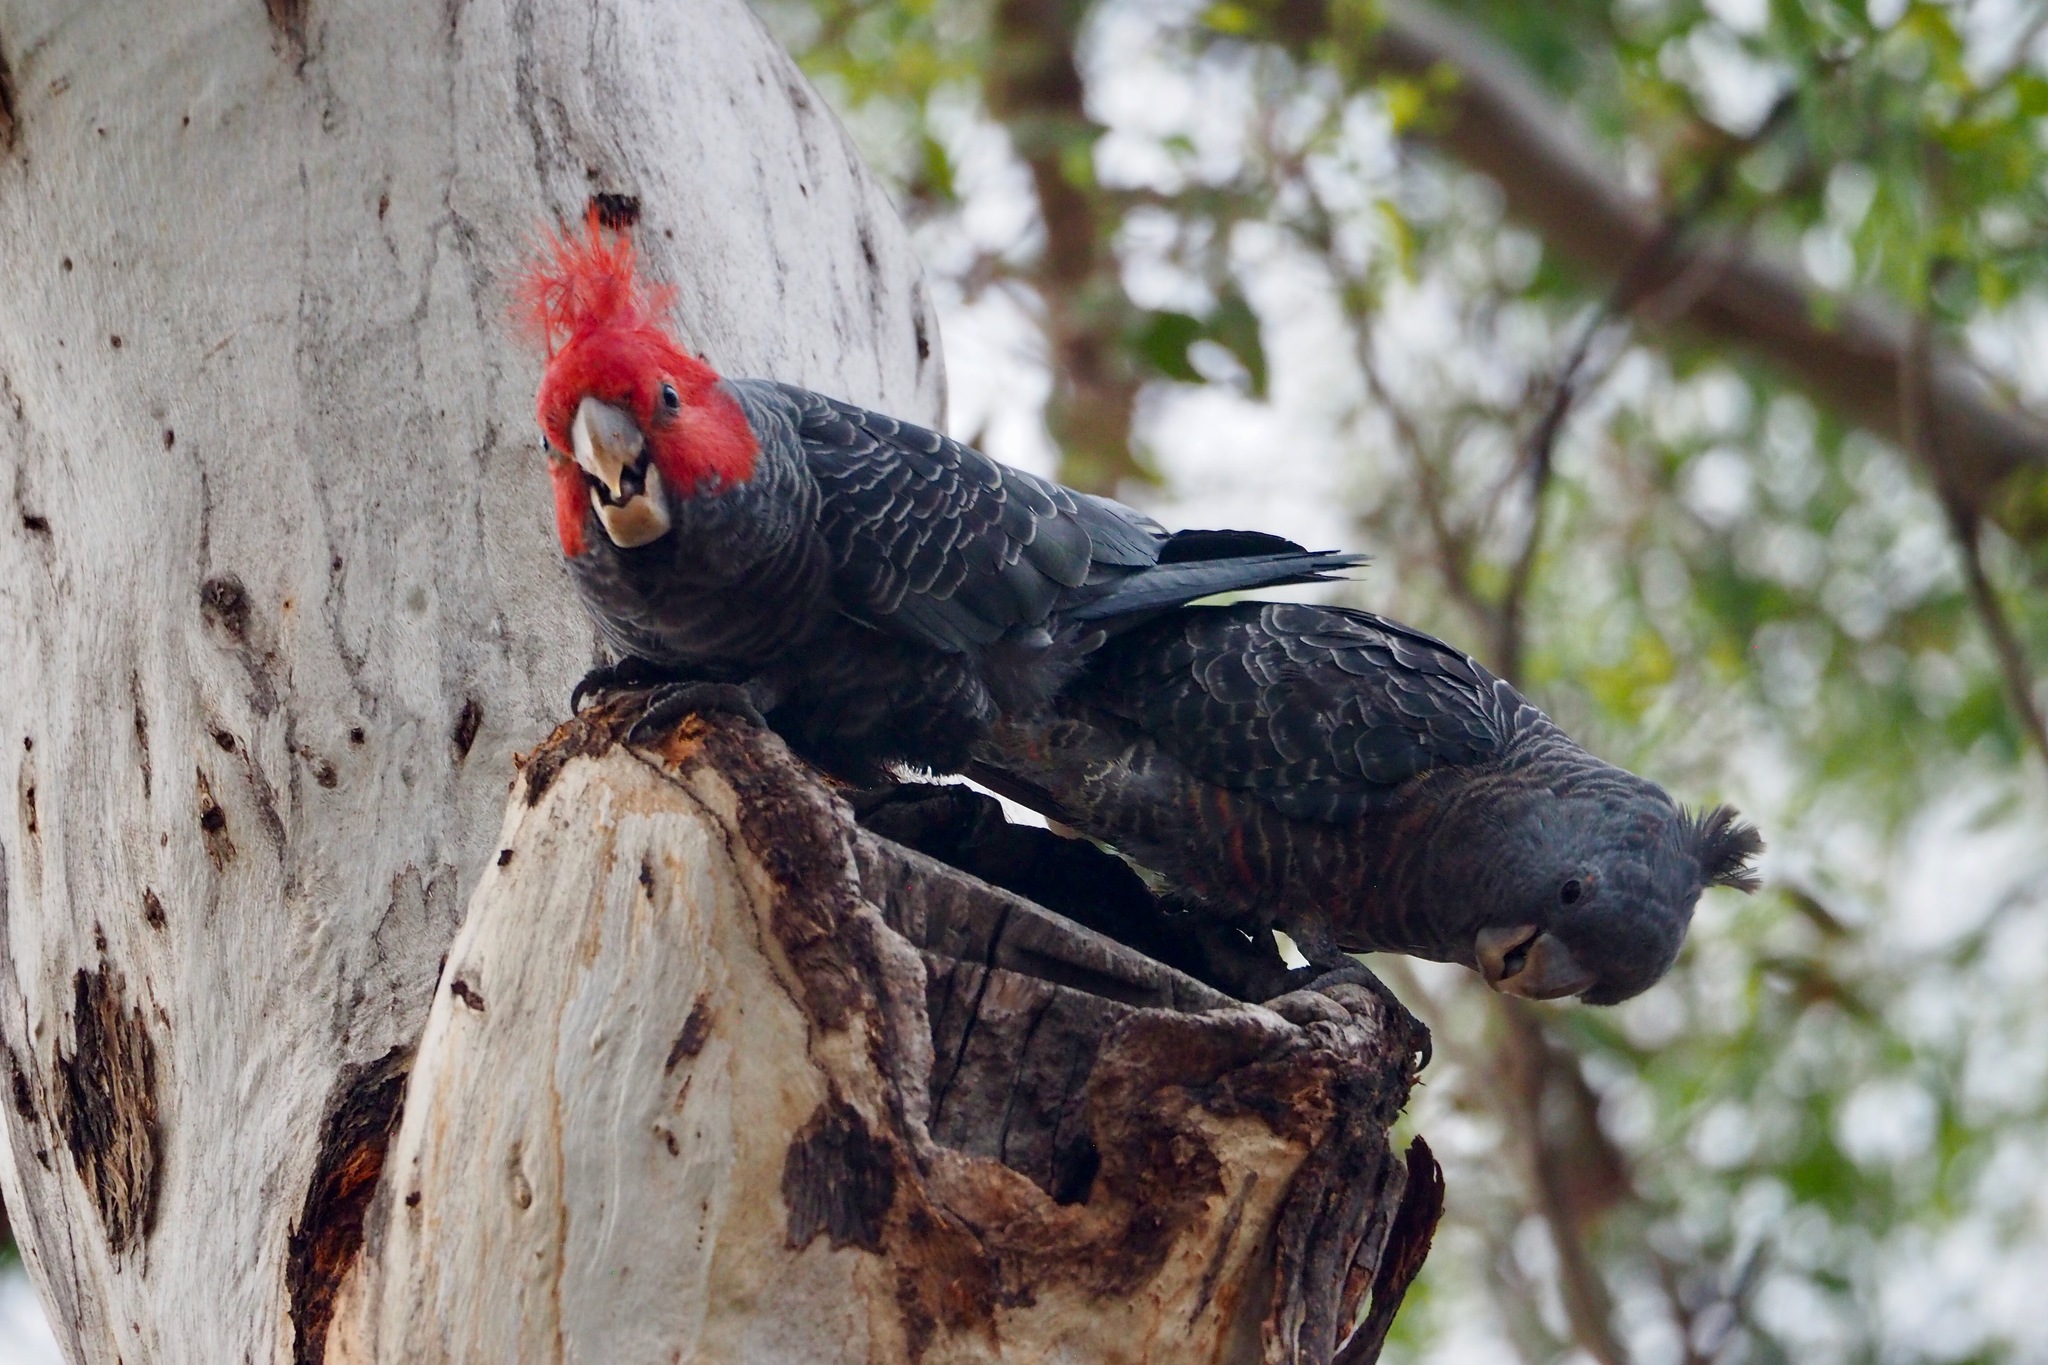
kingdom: Animalia
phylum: Chordata
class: Aves
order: Psittaciformes
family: Psittacidae
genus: Callocephalon
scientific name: Callocephalon fimbriatum
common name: Gang-gang cockatoo
